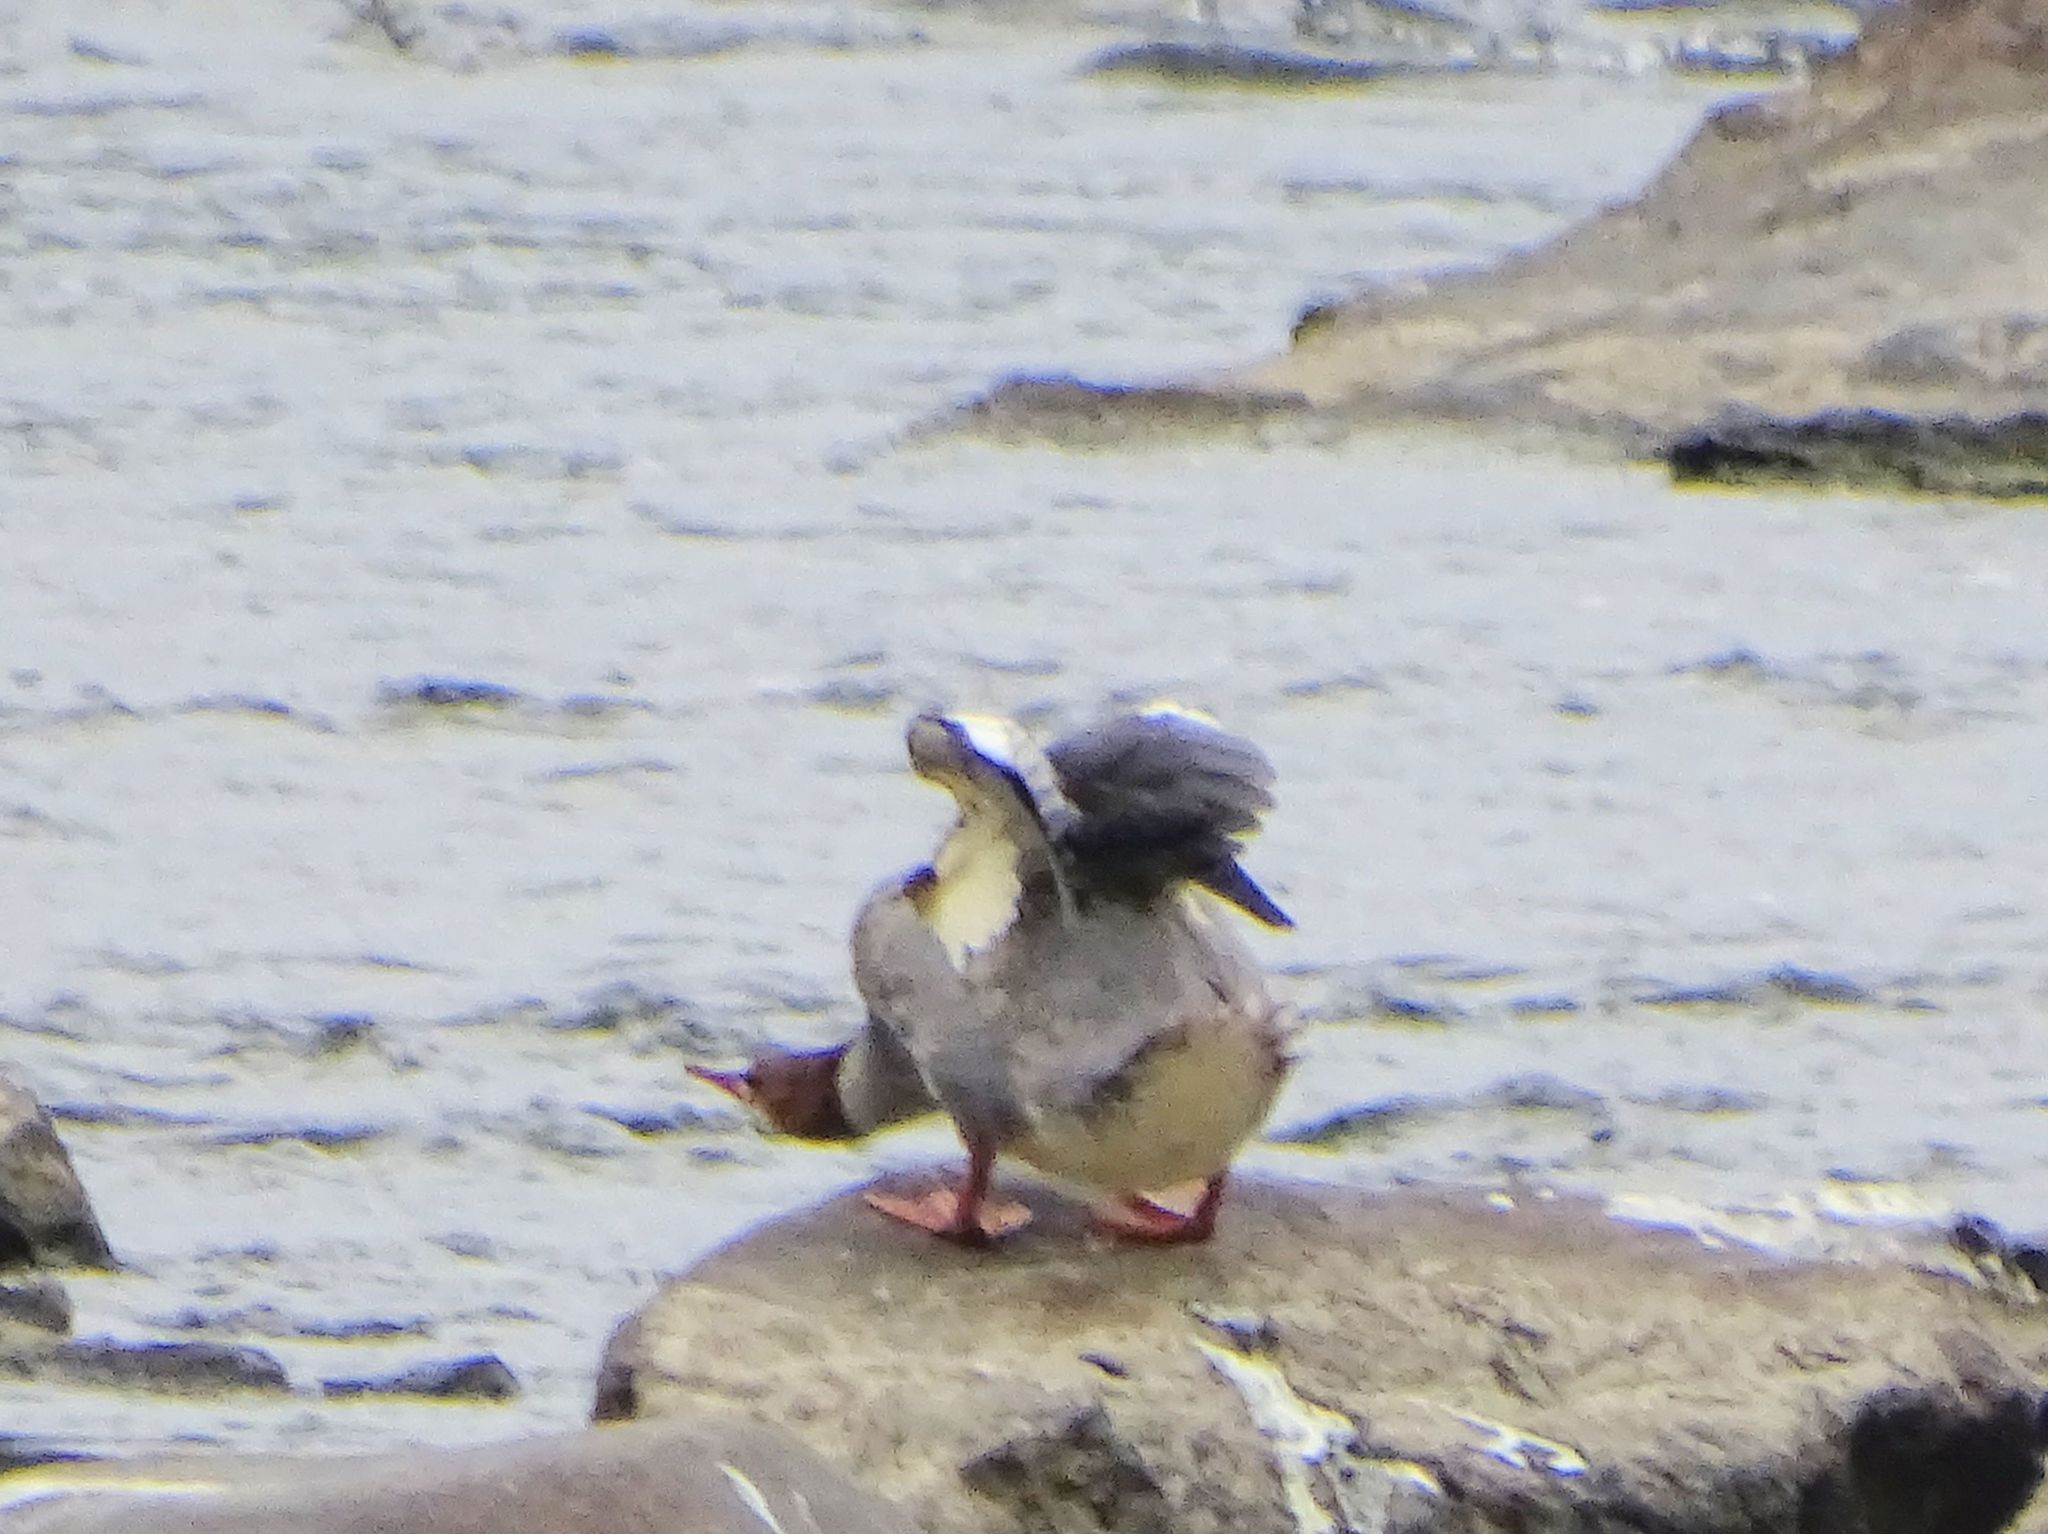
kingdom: Animalia
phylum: Chordata
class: Aves
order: Anseriformes
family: Anatidae
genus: Mergus
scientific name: Mergus merganser
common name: Common merganser
